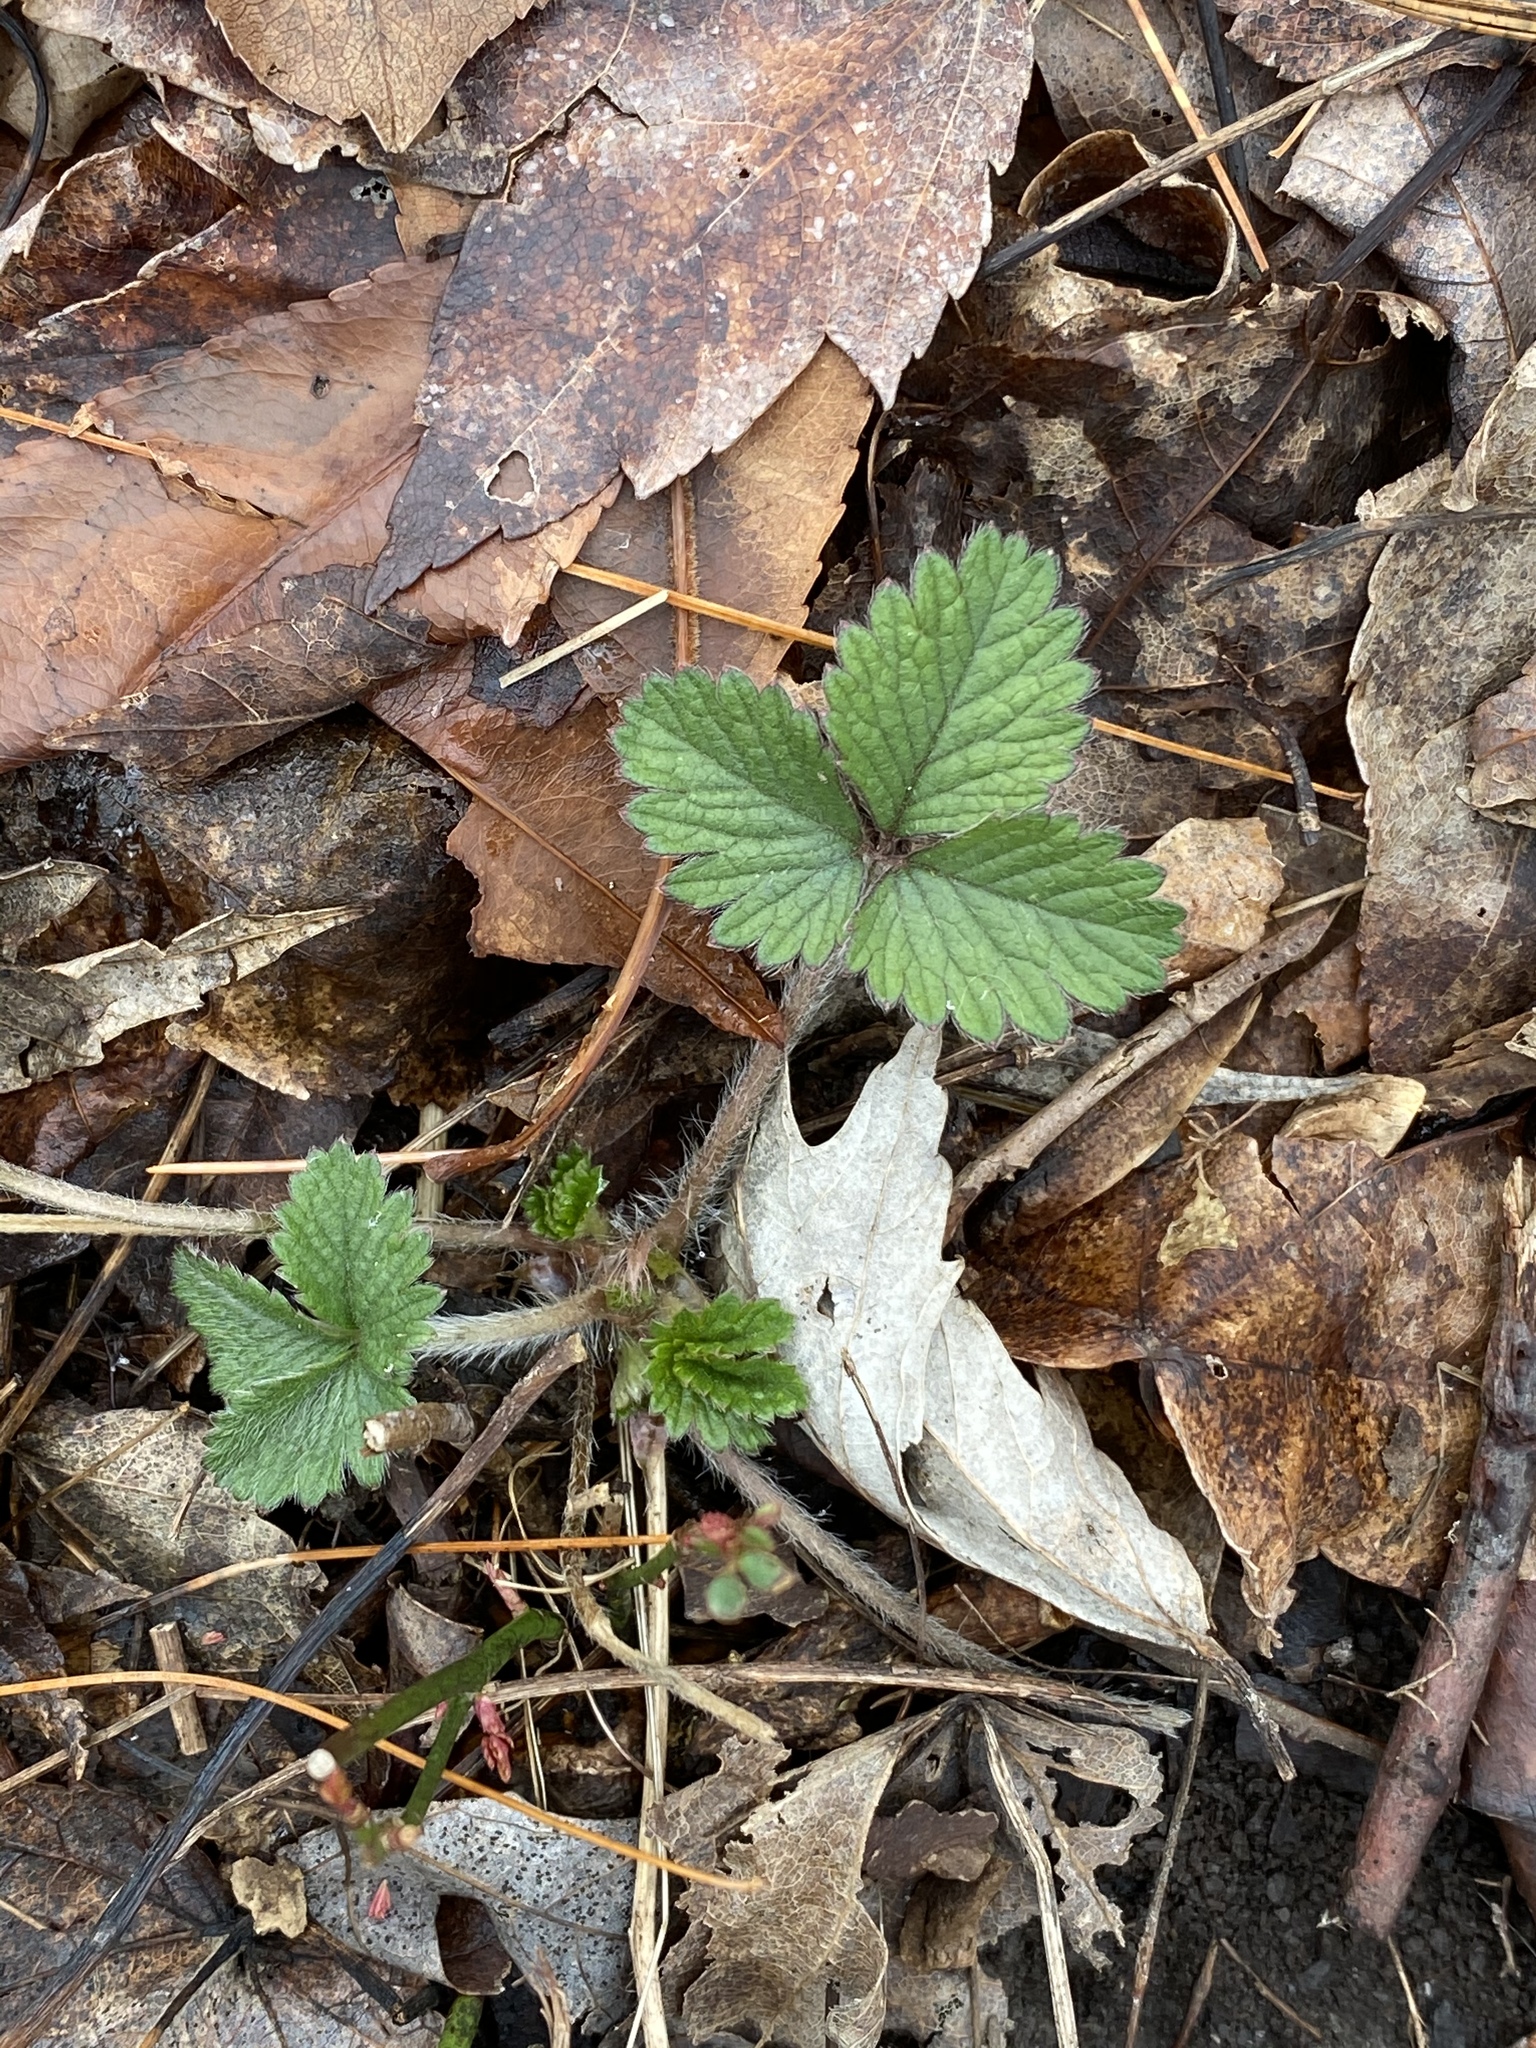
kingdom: Plantae
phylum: Tracheophyta
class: Magnoliopsida
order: Rosales
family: Rosaceae
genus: Potentilla
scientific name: Potentilla indica
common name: Yellow-flowered strawberry
